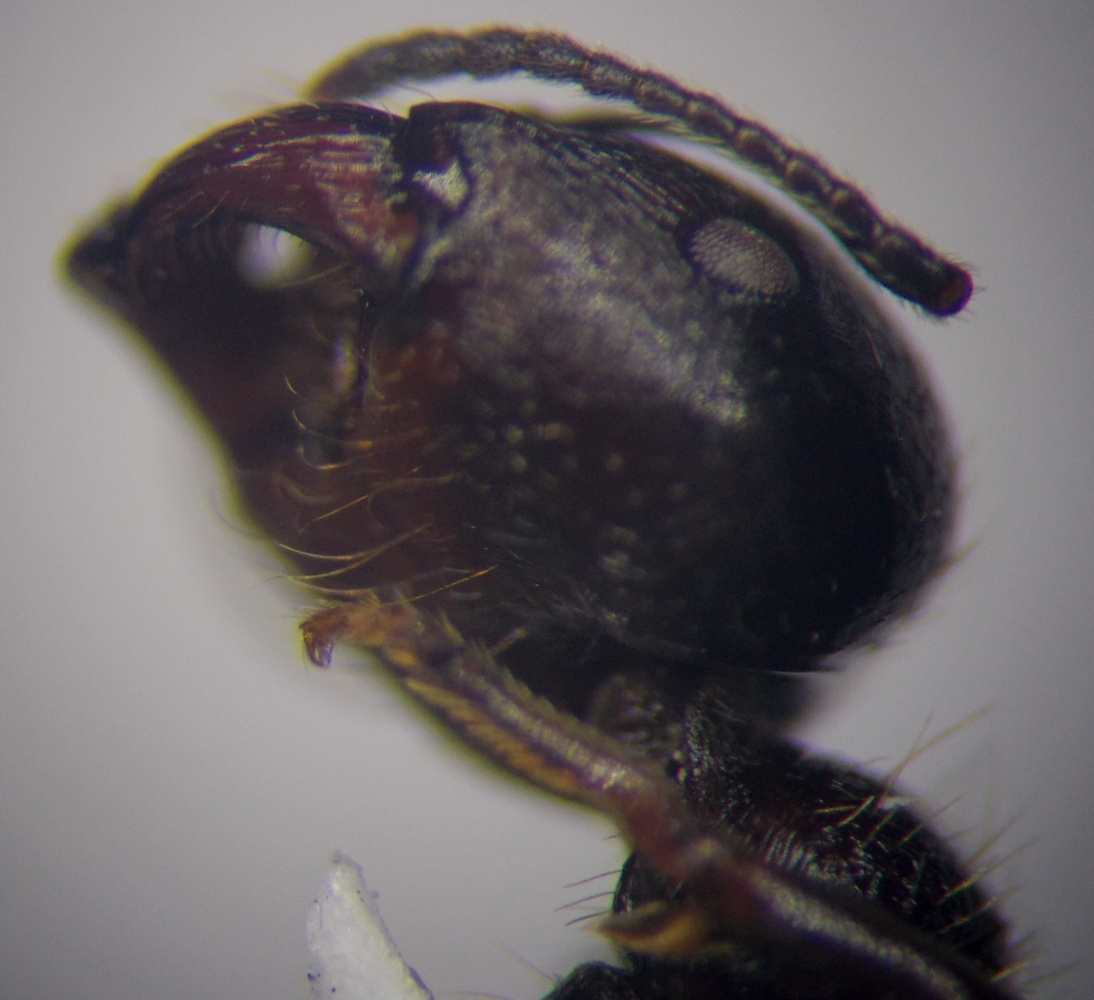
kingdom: Animalia
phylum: Arthropoda
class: Insecta
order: Hymenoptera
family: Formicidae
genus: Messor
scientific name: Messor structor
